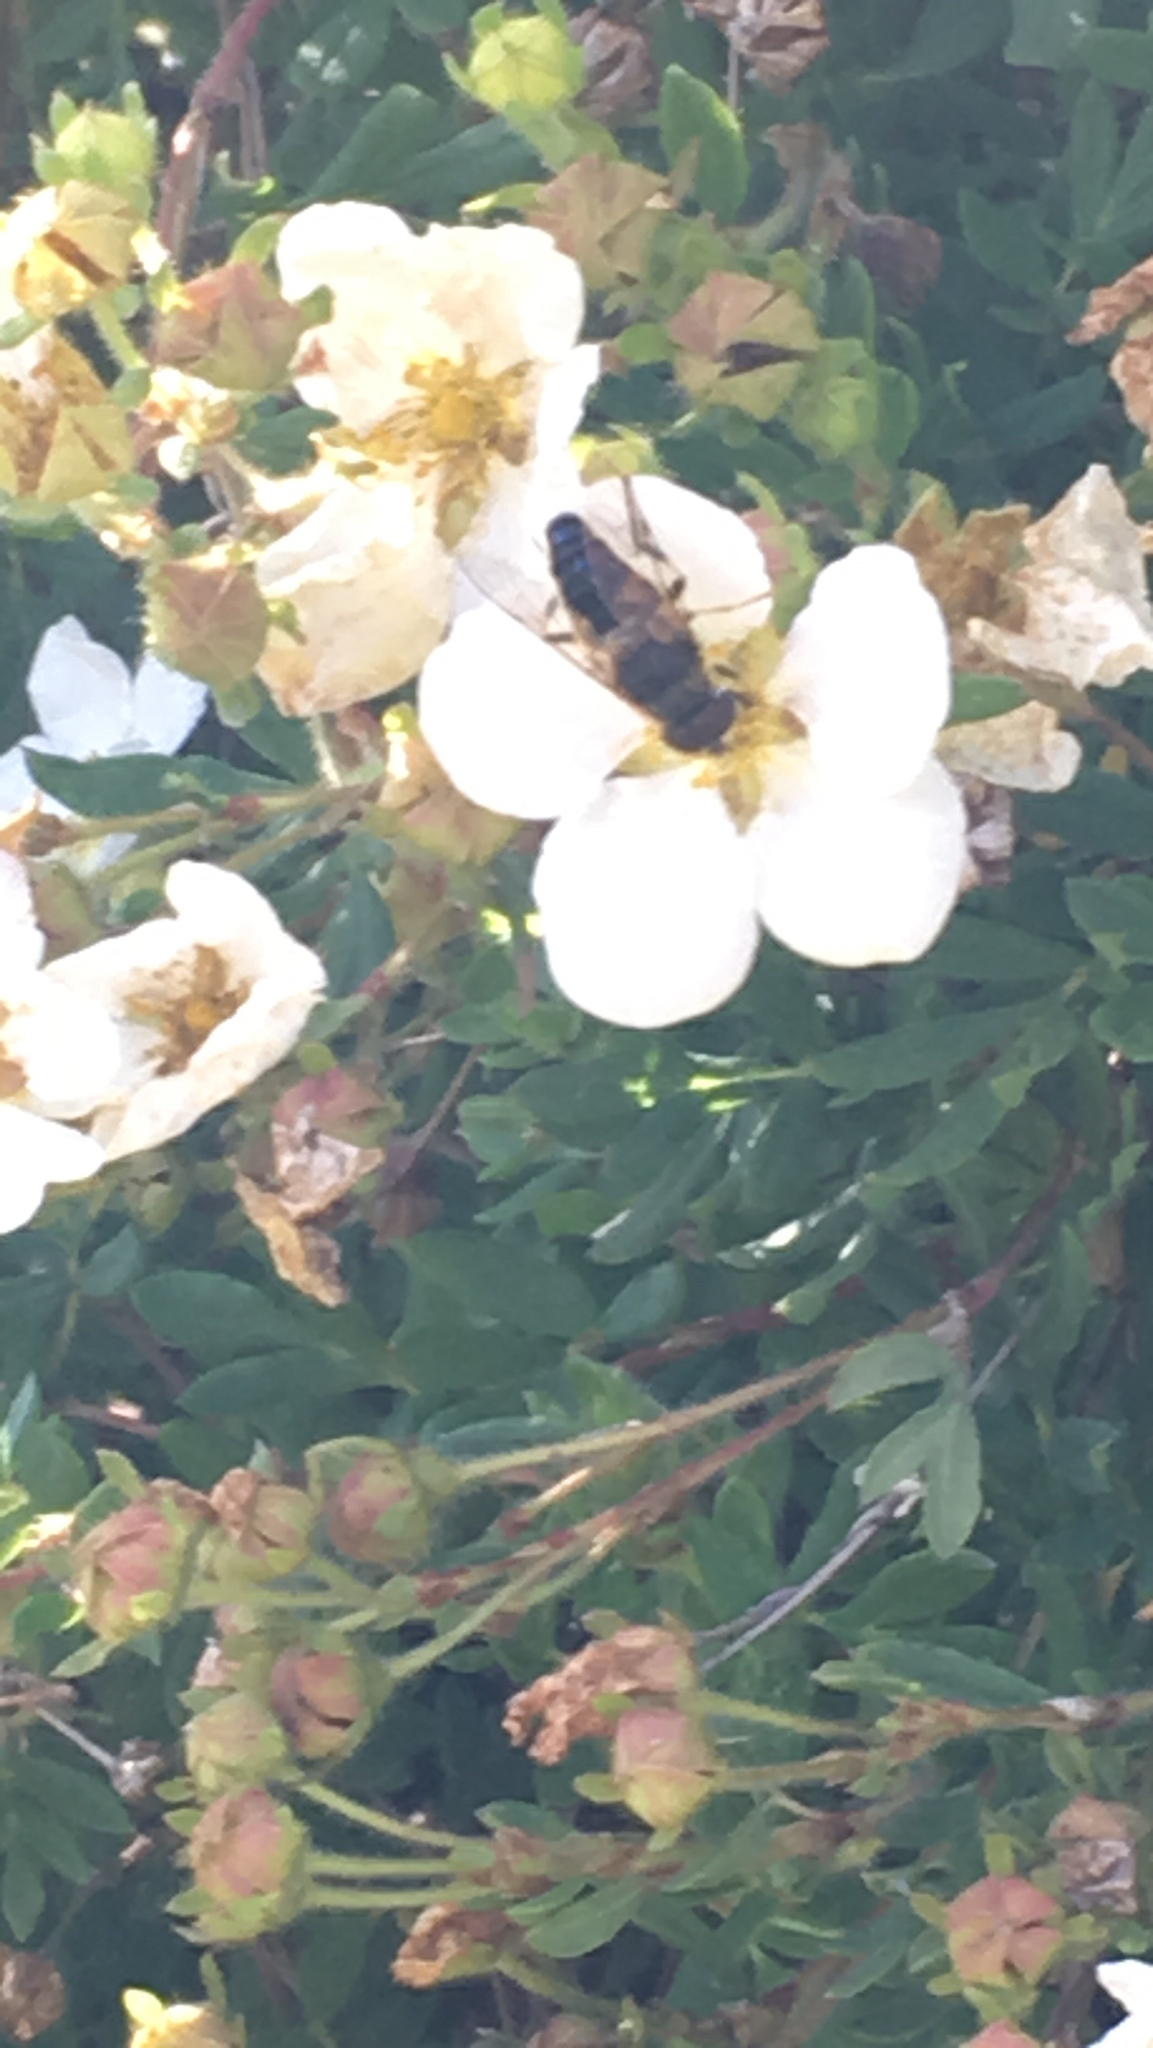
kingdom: Animalia
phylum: Arthropoda
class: Insecta
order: Diptera
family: Syrphidae
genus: Eristalis
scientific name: Eristalis pertinax
